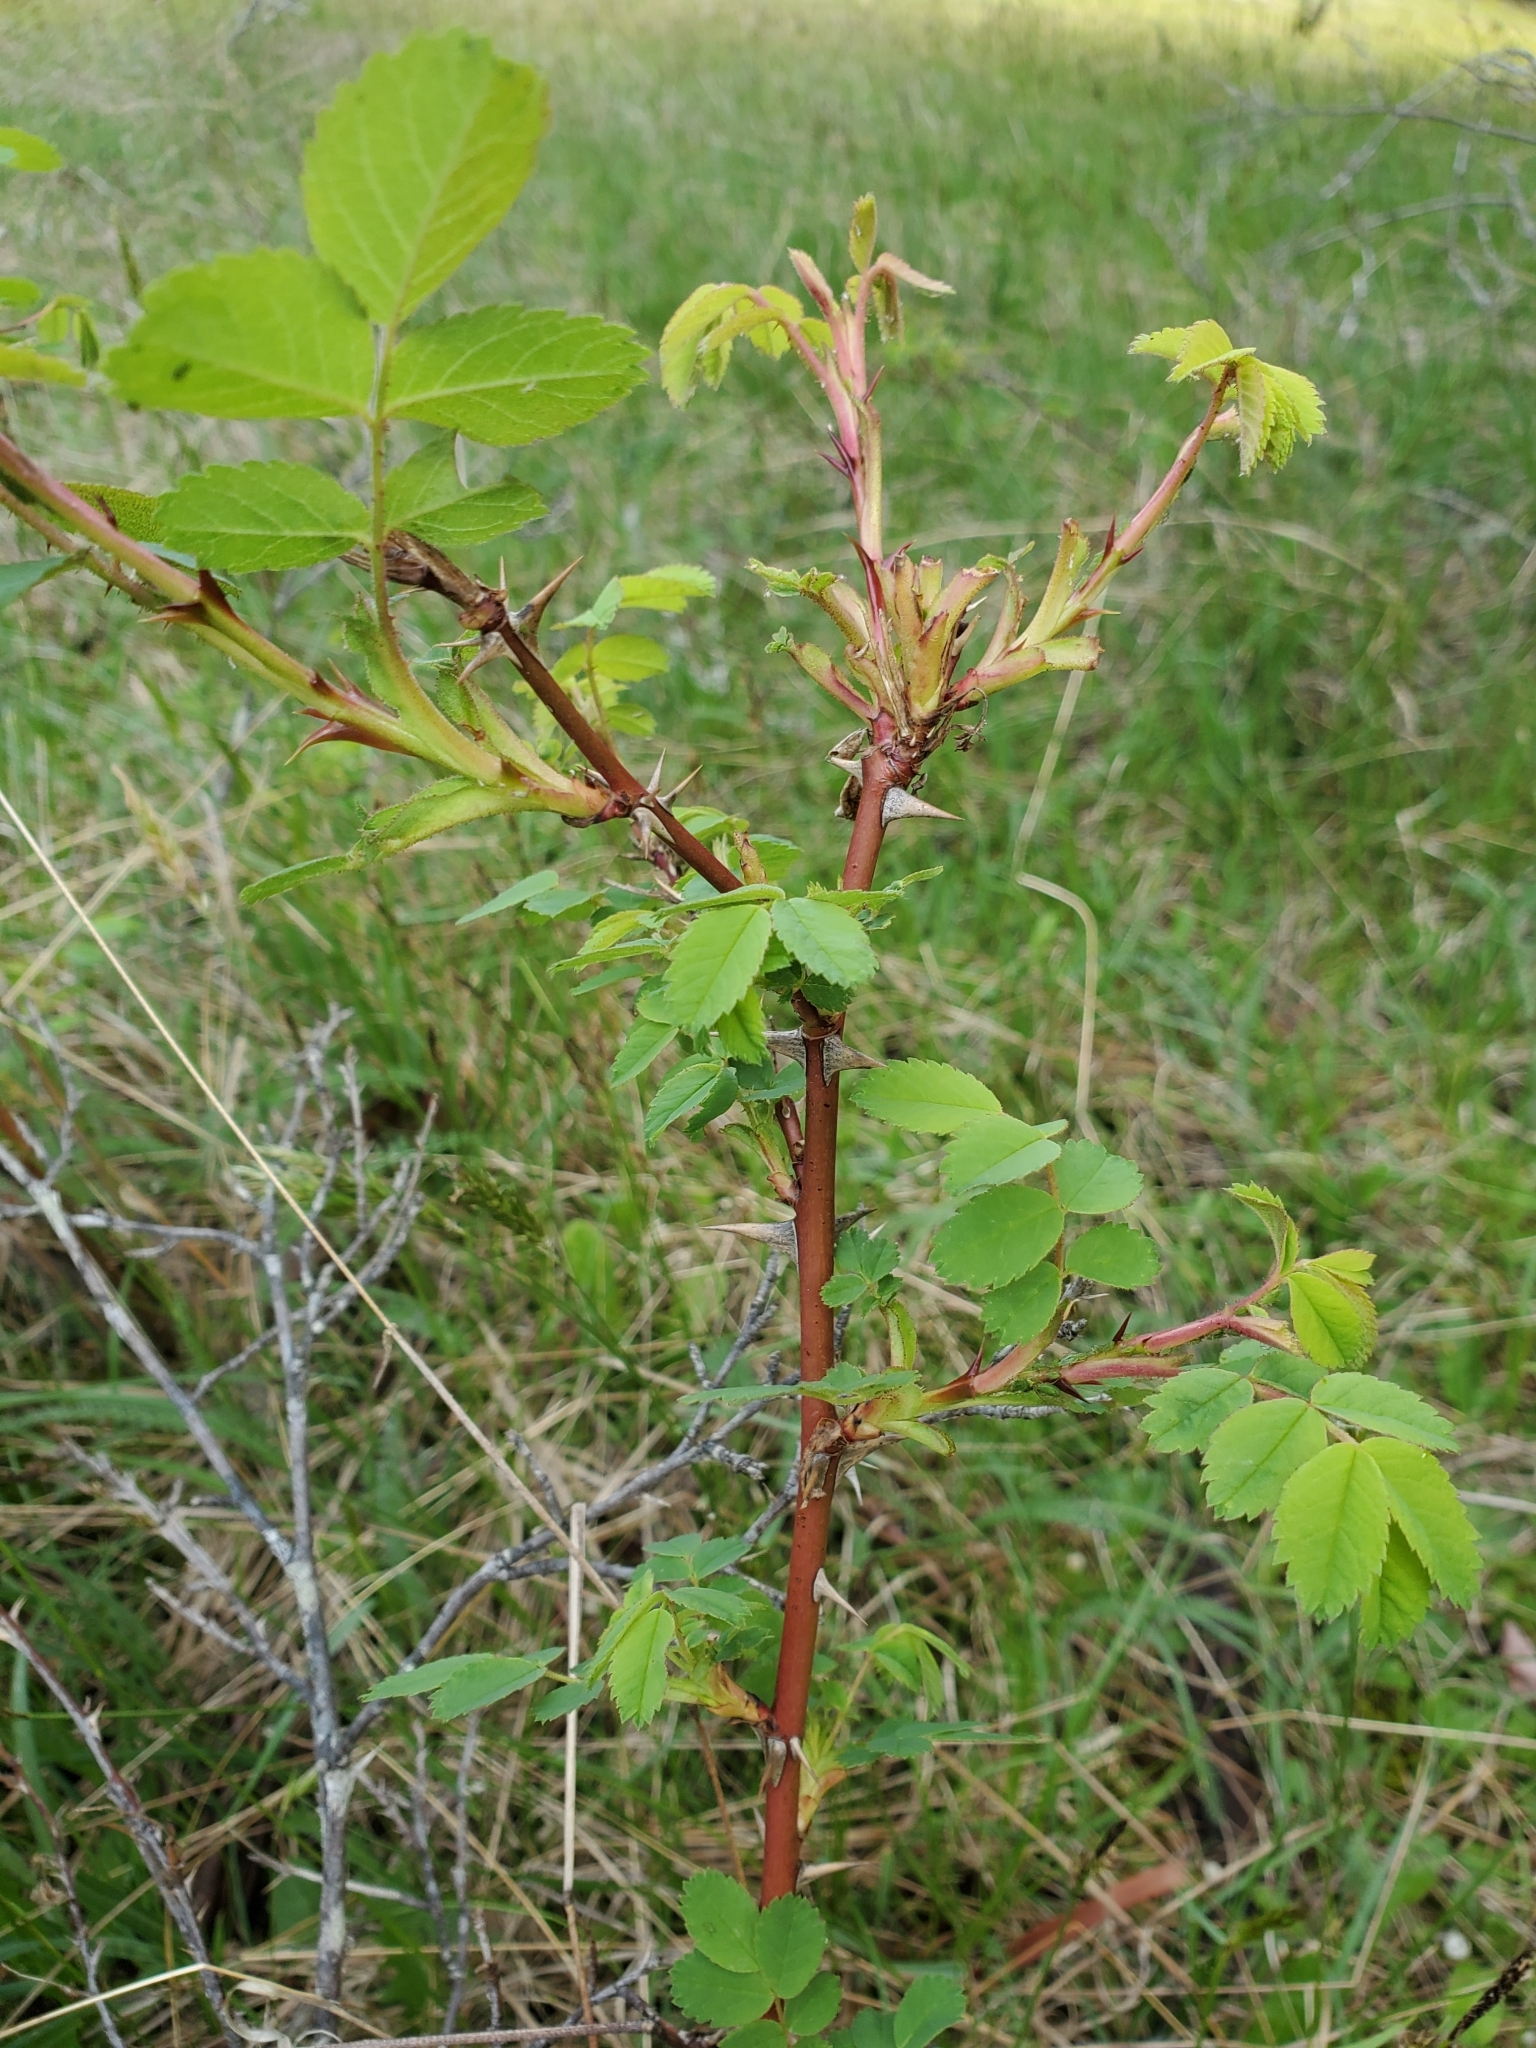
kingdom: Plantae
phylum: Tracheophyta
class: Magnoliopsida
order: Rosales
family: Rosaceae
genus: Rosa
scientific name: Rosa nutkana
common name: Nootka rose
